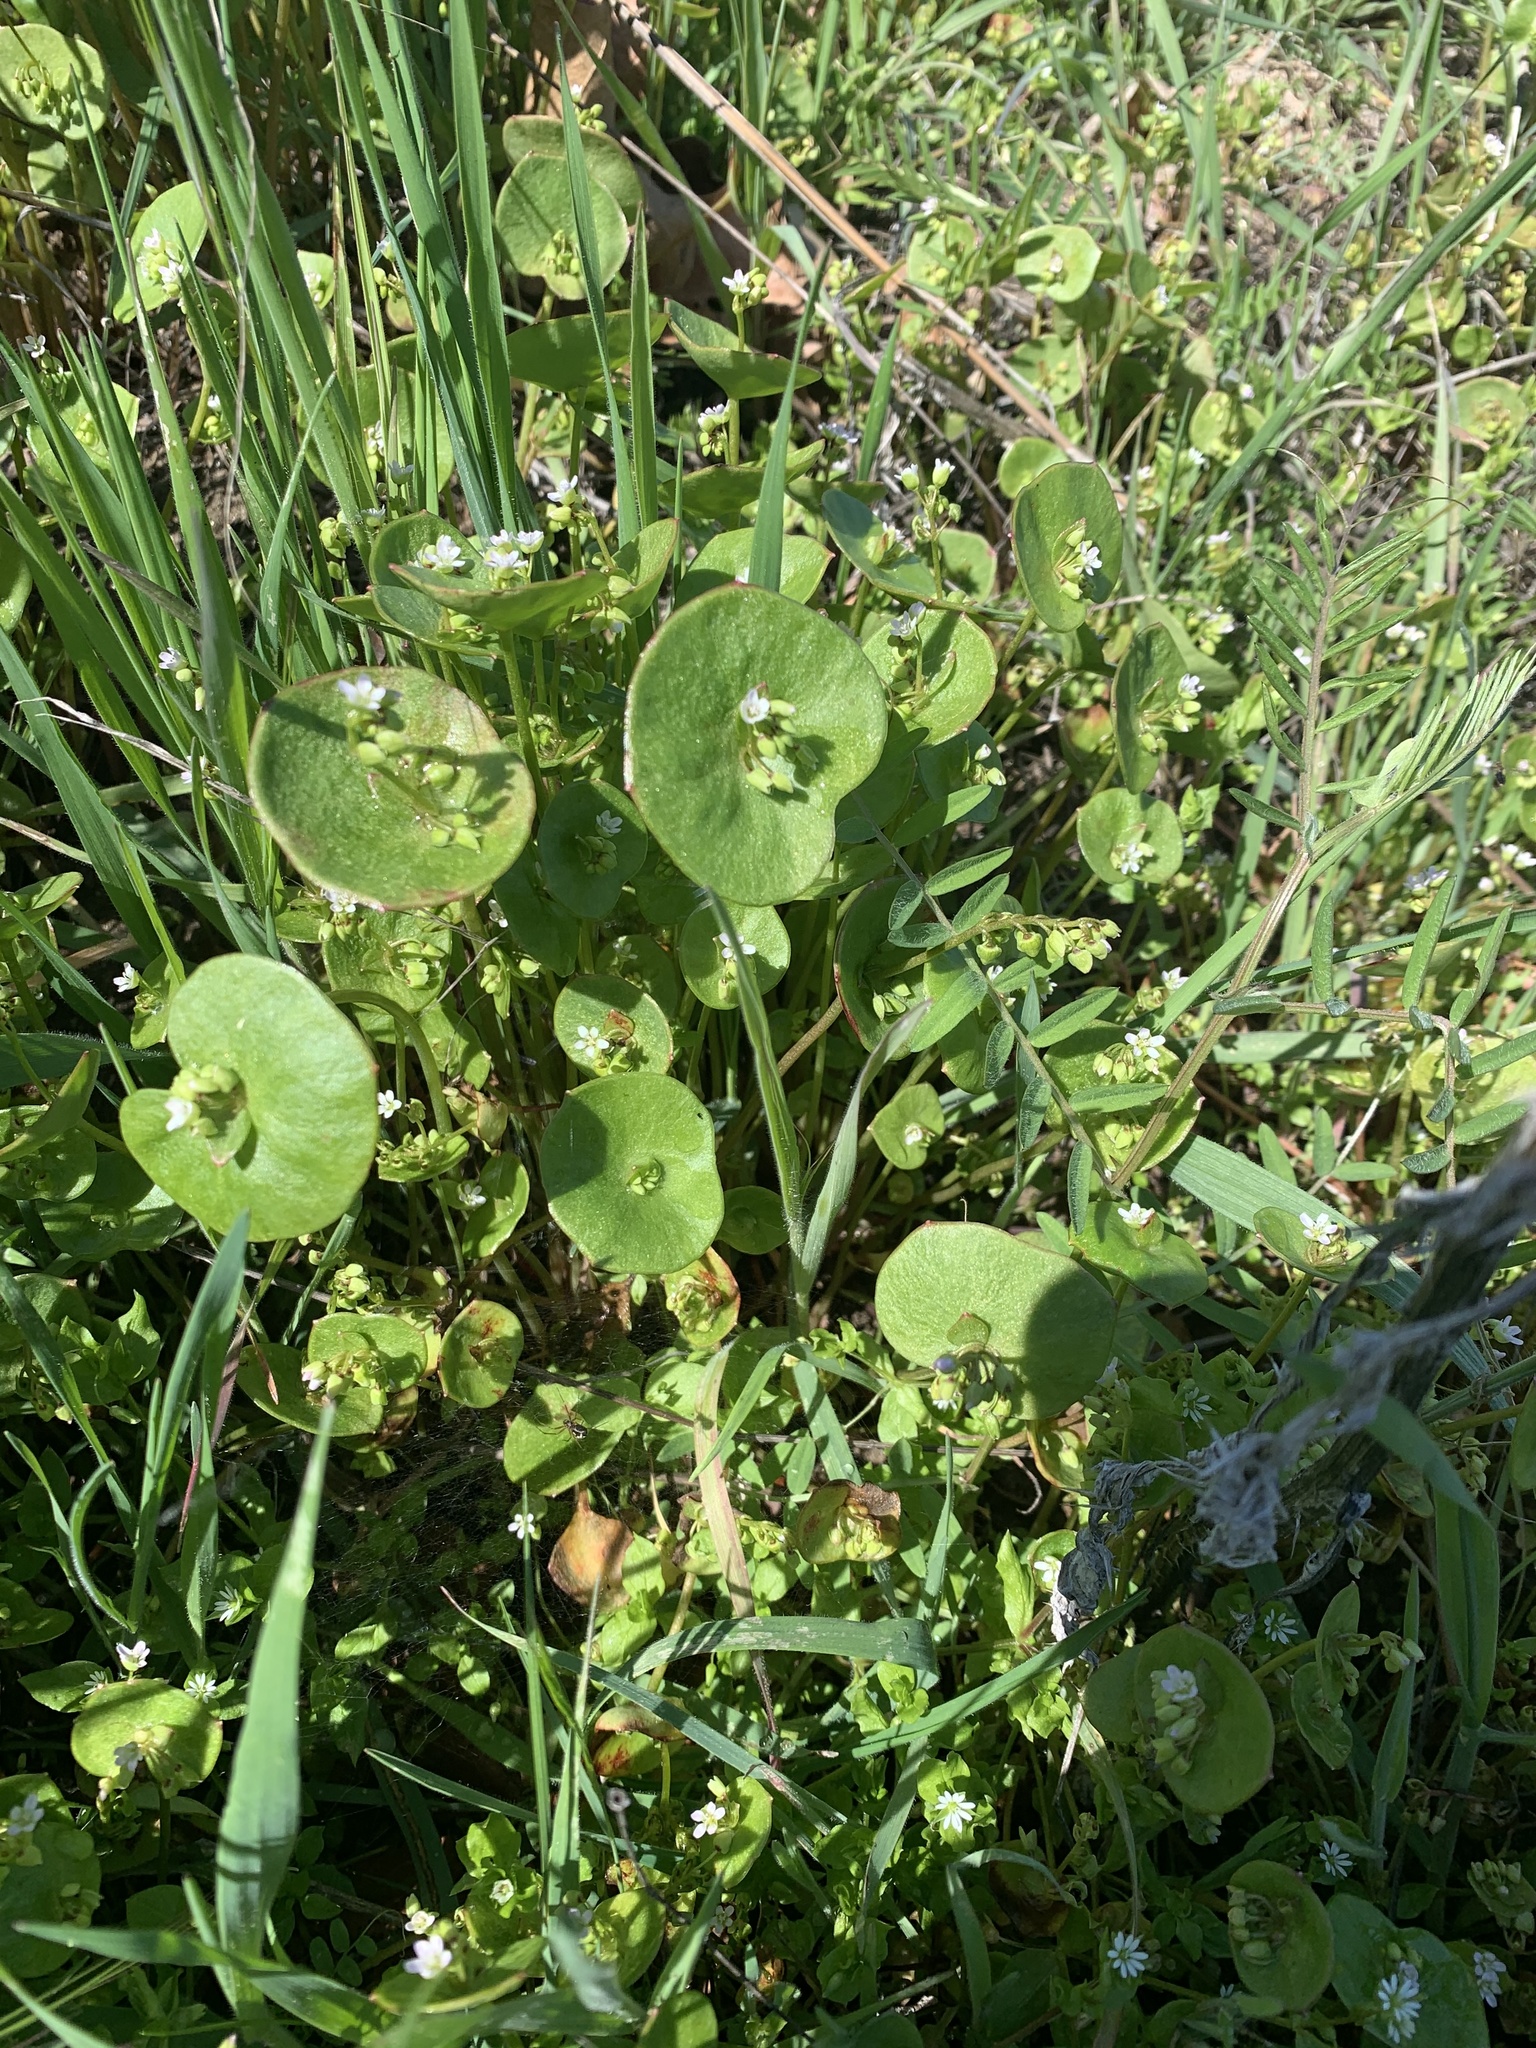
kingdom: Plantae
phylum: Tracheophyta
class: Magnoliopsida
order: Caryophyllales
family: Montiaceae
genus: Claytonia
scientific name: Claytonia perfoliata
